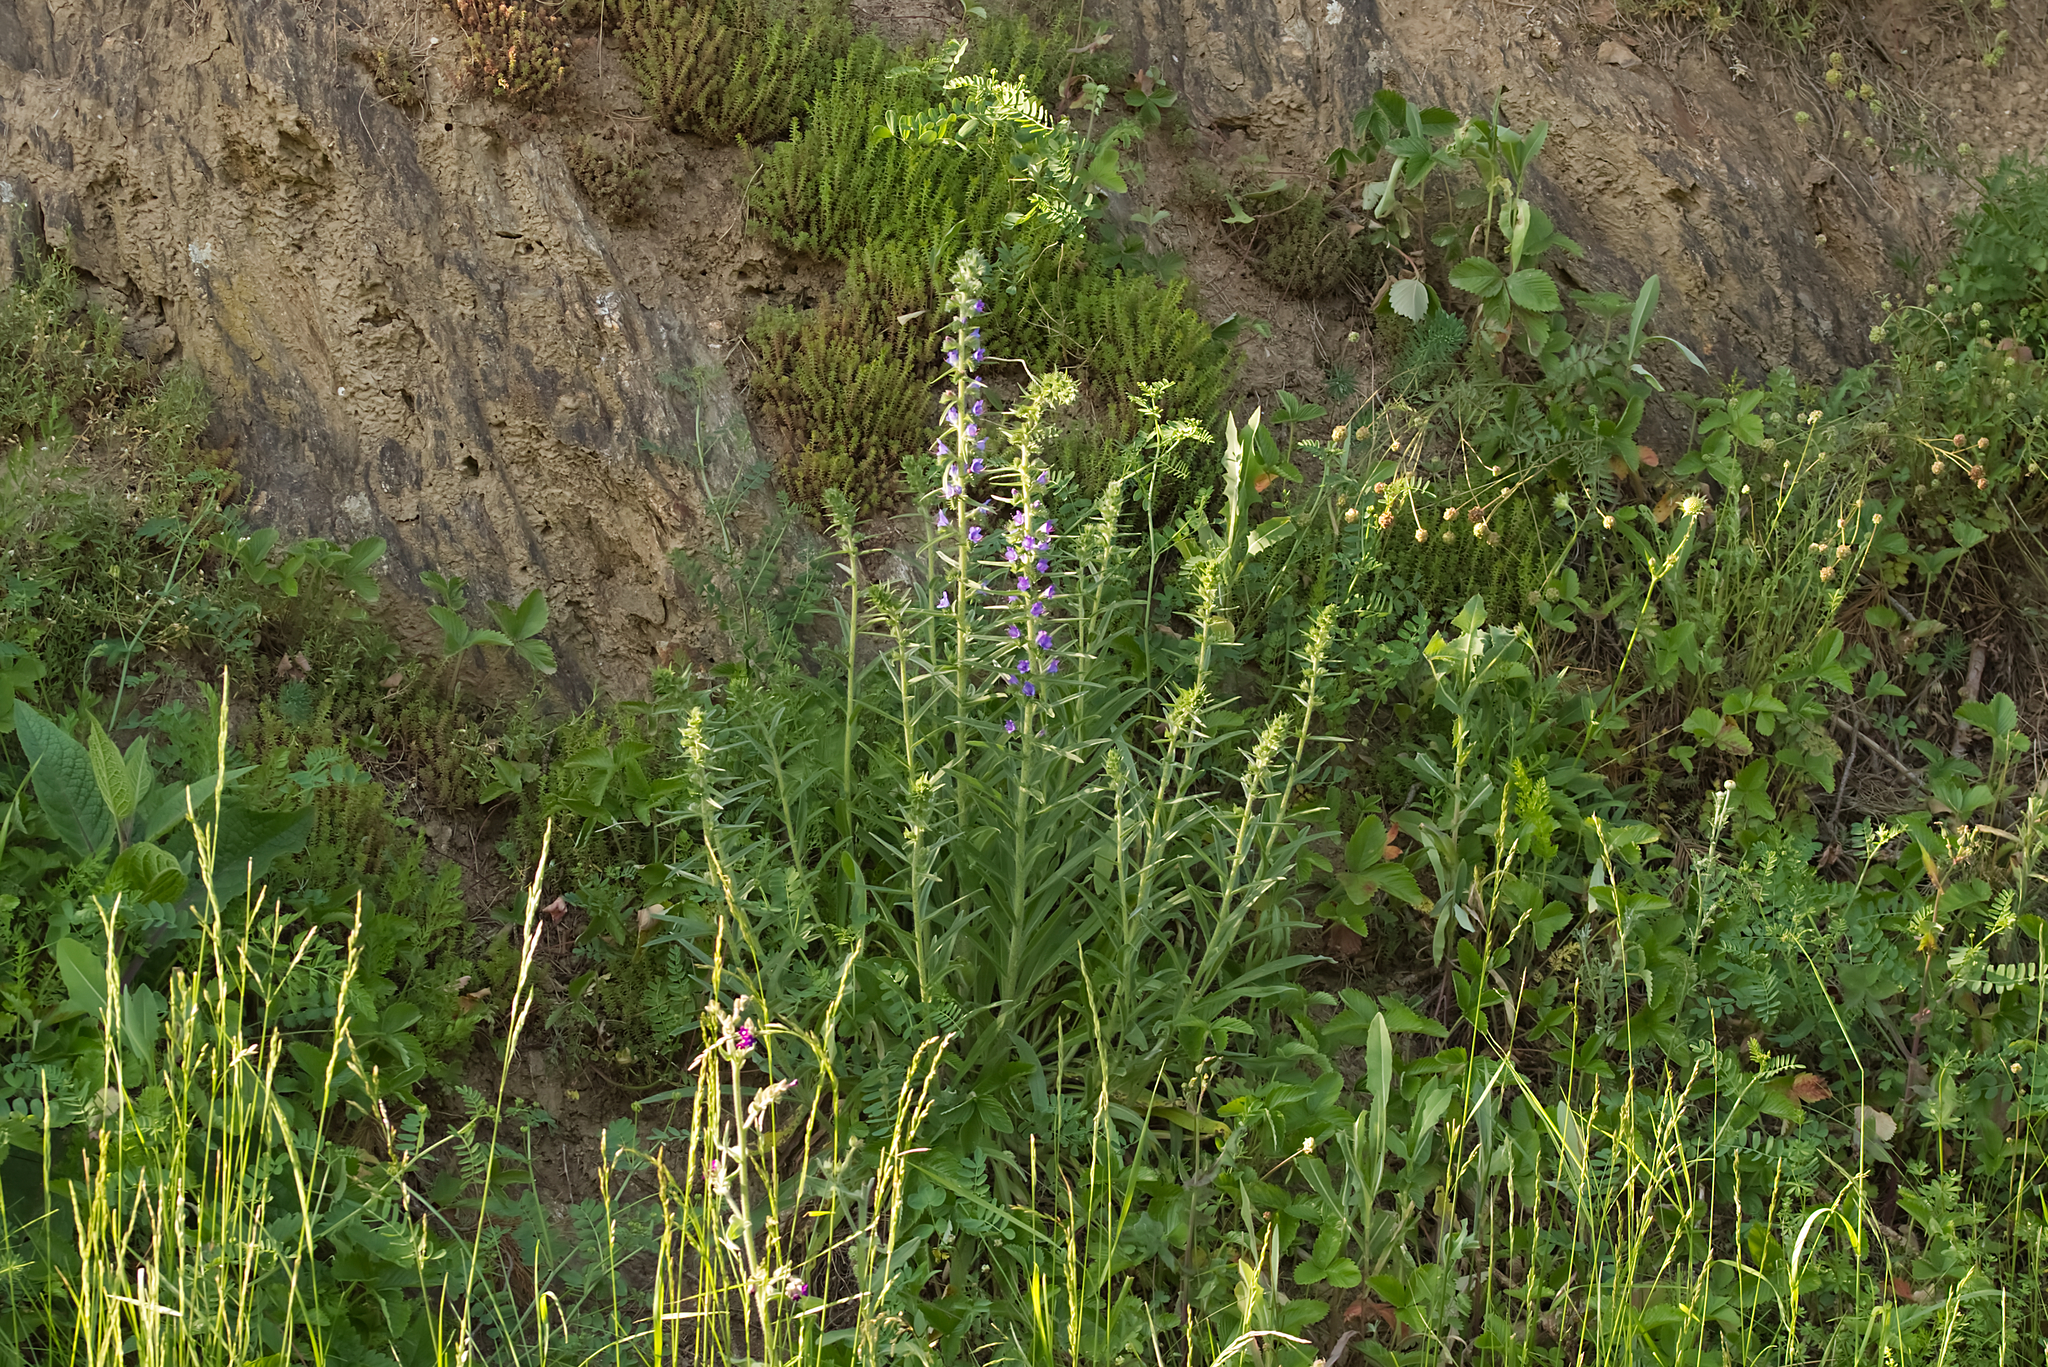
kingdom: Plantae
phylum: Tracheophyta
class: Magnoliopsida
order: Boraginales
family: Boraginaceae
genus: Echium
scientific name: Echium vulgare
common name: Common viper's bugloss
